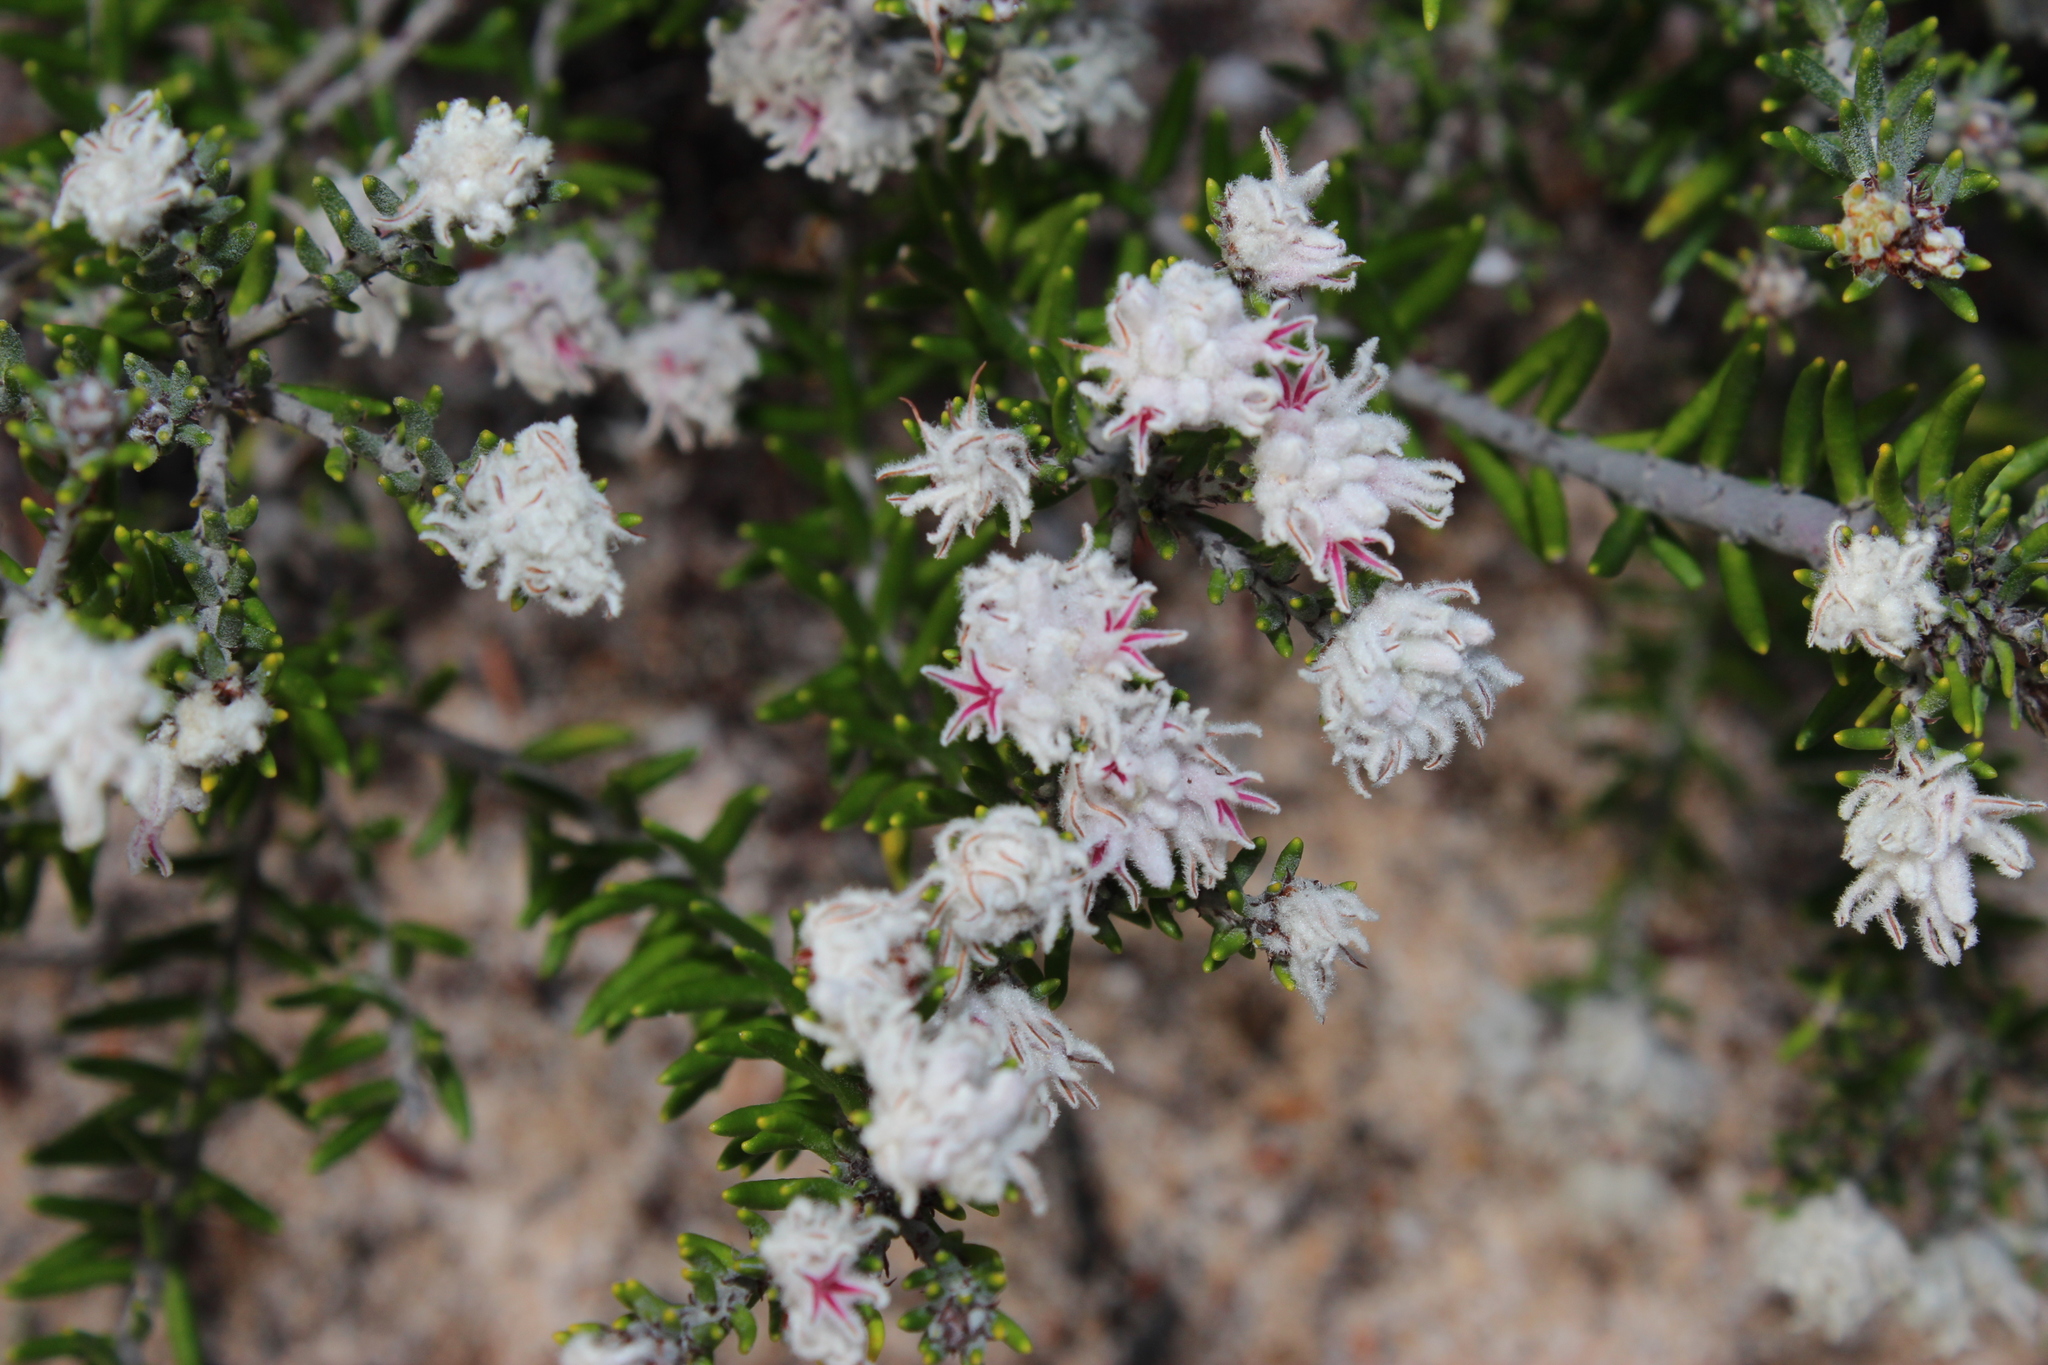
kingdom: Plantae
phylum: Tracheophyta
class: Magnoliopsida
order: Rosales
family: Rhamnaceae
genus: Trichocephalus
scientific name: Trichocephalus stipularis
